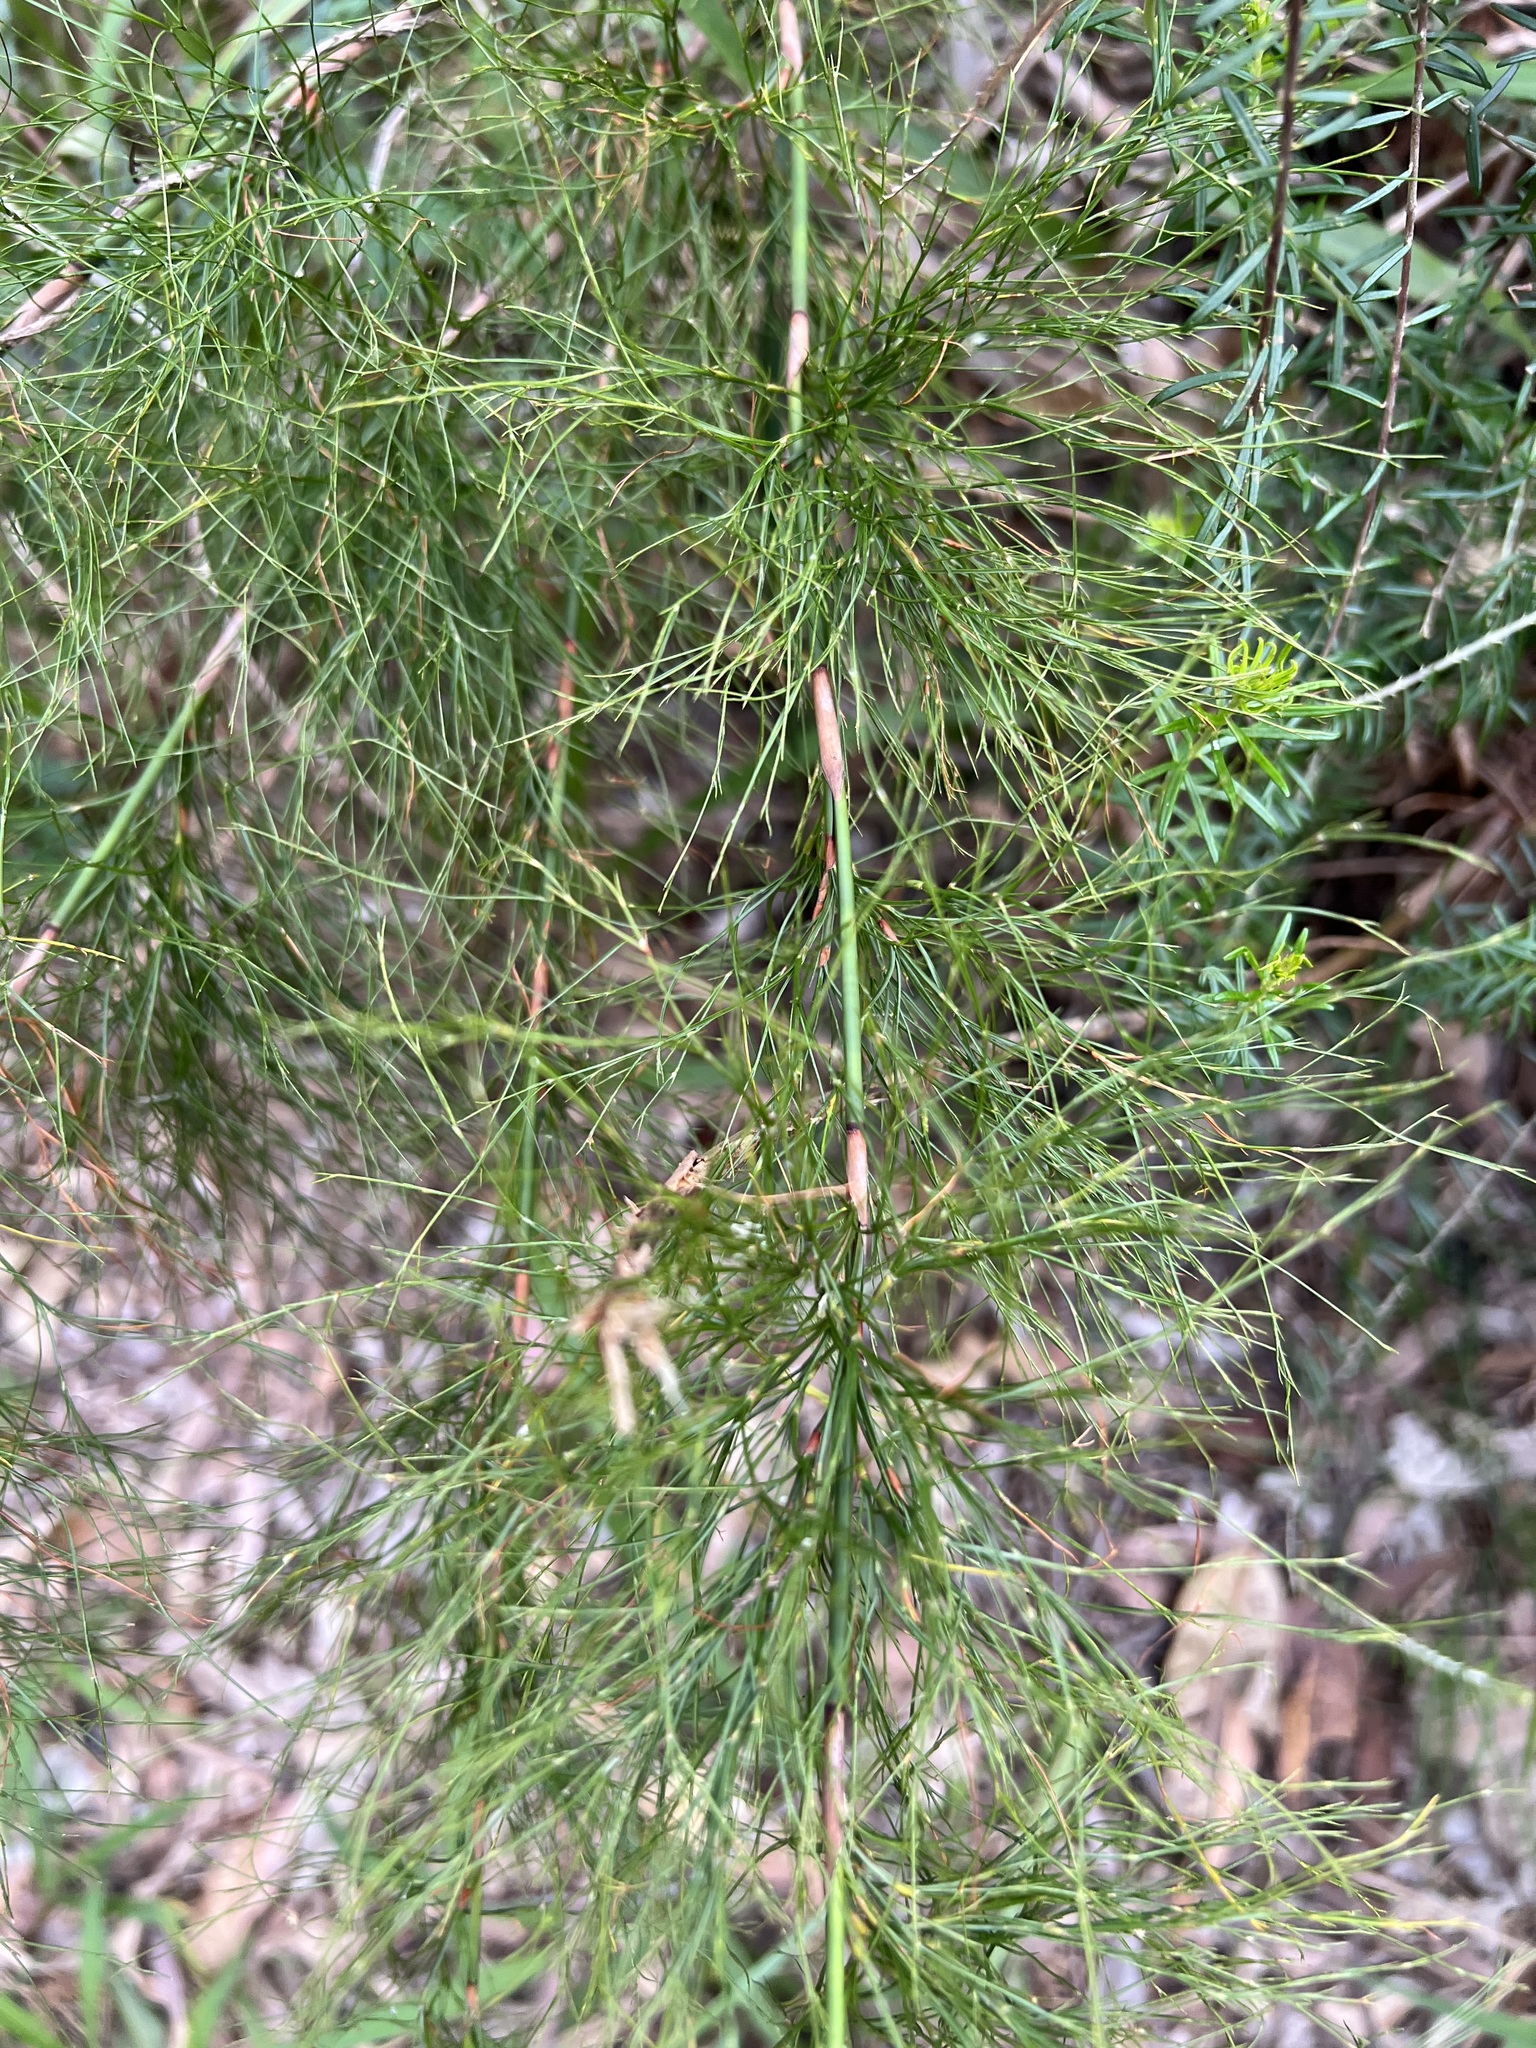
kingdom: Plantae
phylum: Tracheophyta
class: Liliopsida
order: Poales
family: Restionaceae
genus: Baloskion
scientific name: Baloskion tetraphyllum
